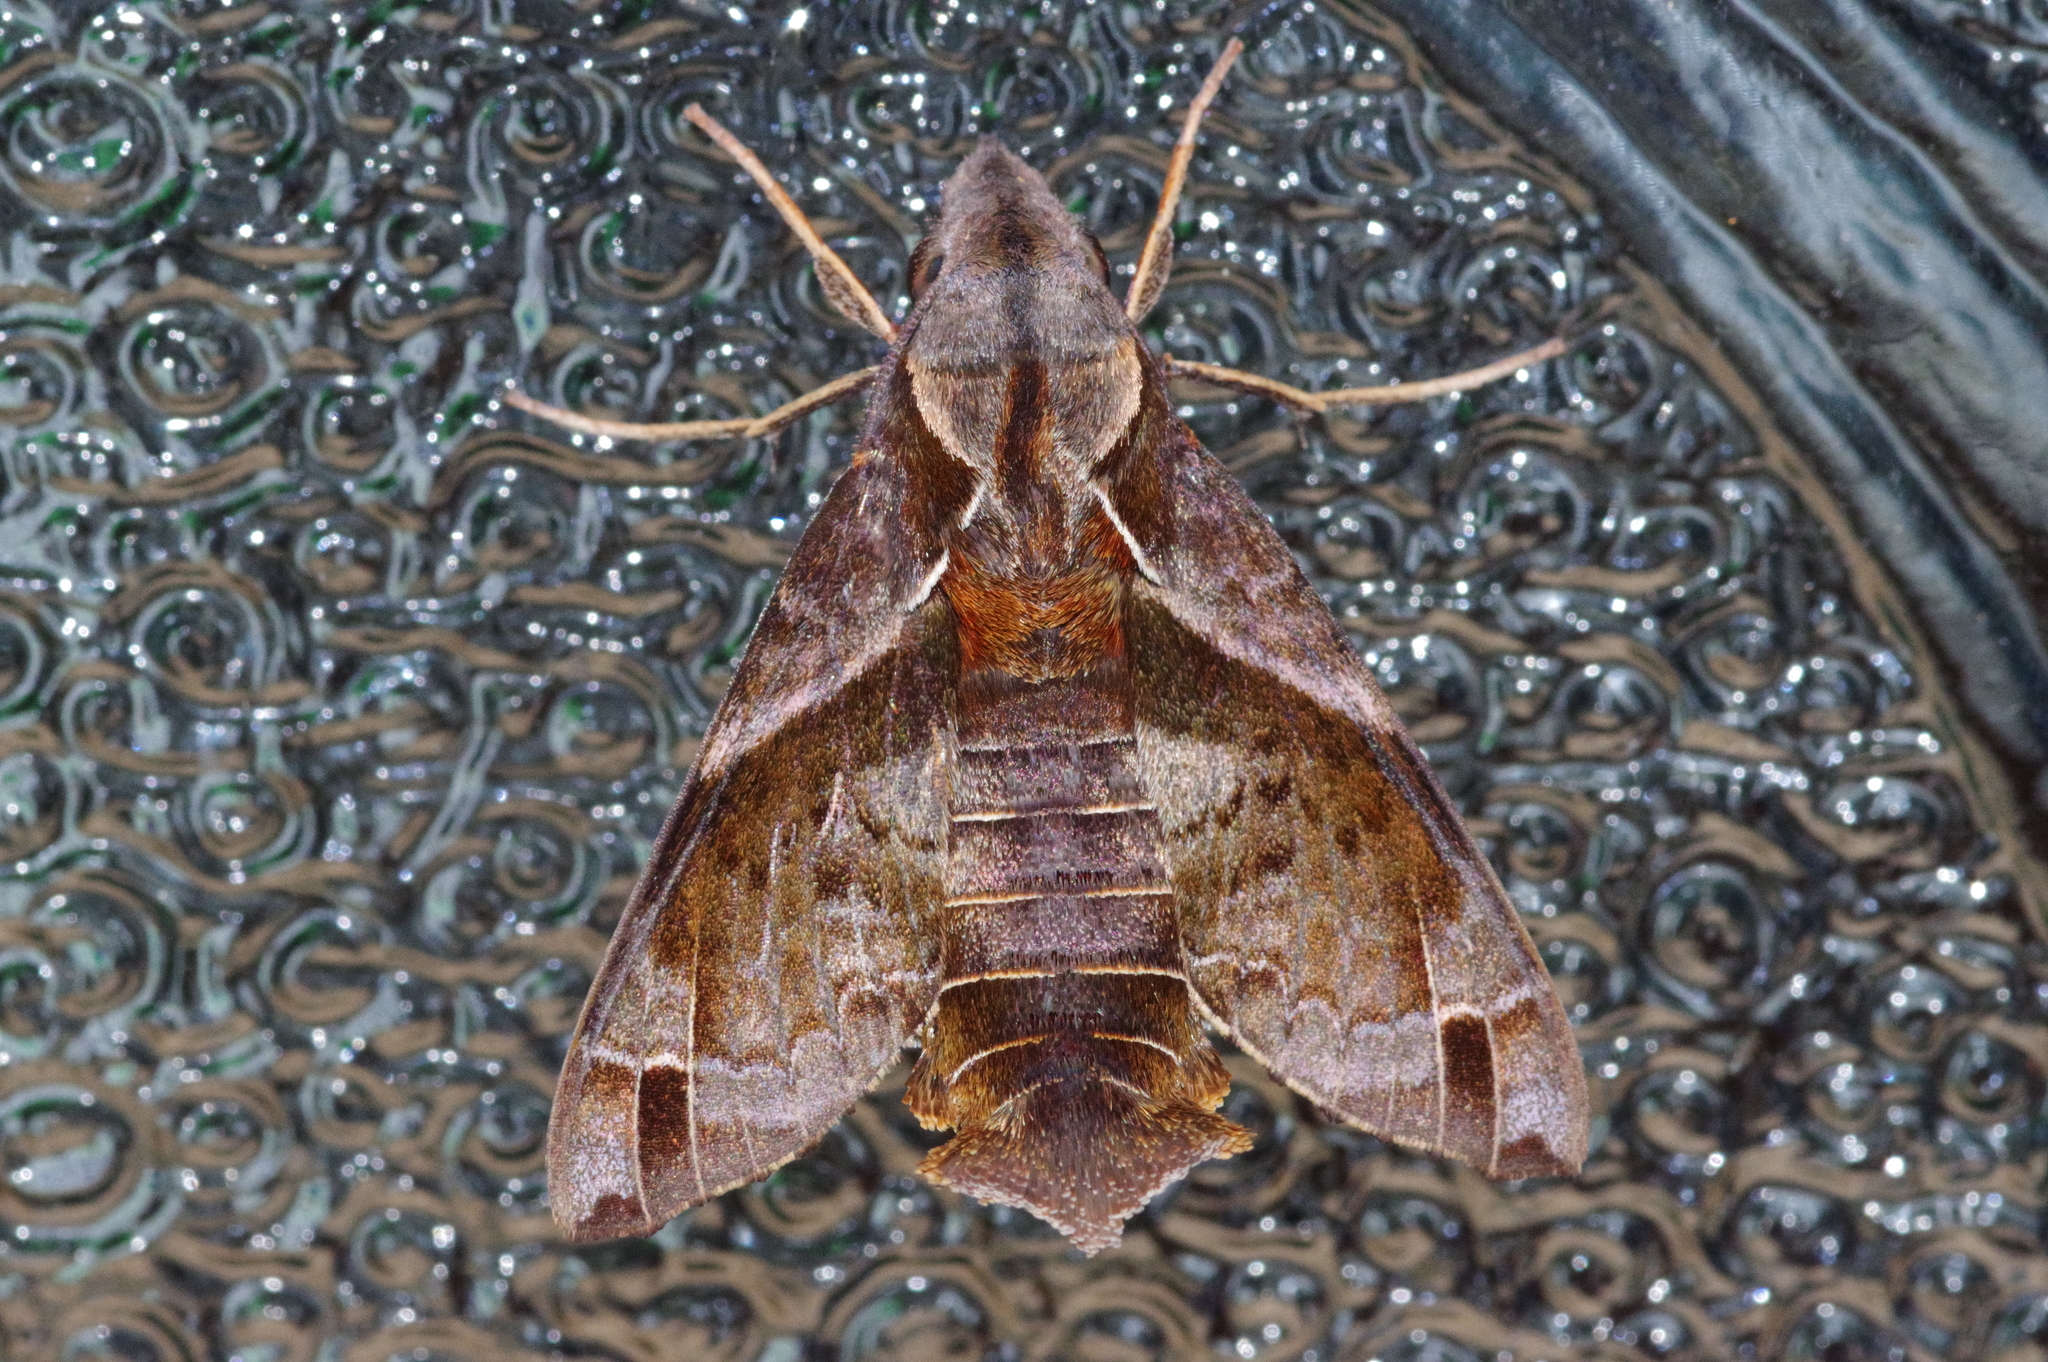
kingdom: Animalia
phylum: Arthropoda
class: Insecta
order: Lepidoptera
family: Sphingidae
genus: Macroglossum
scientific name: Macroglossum fritzei
